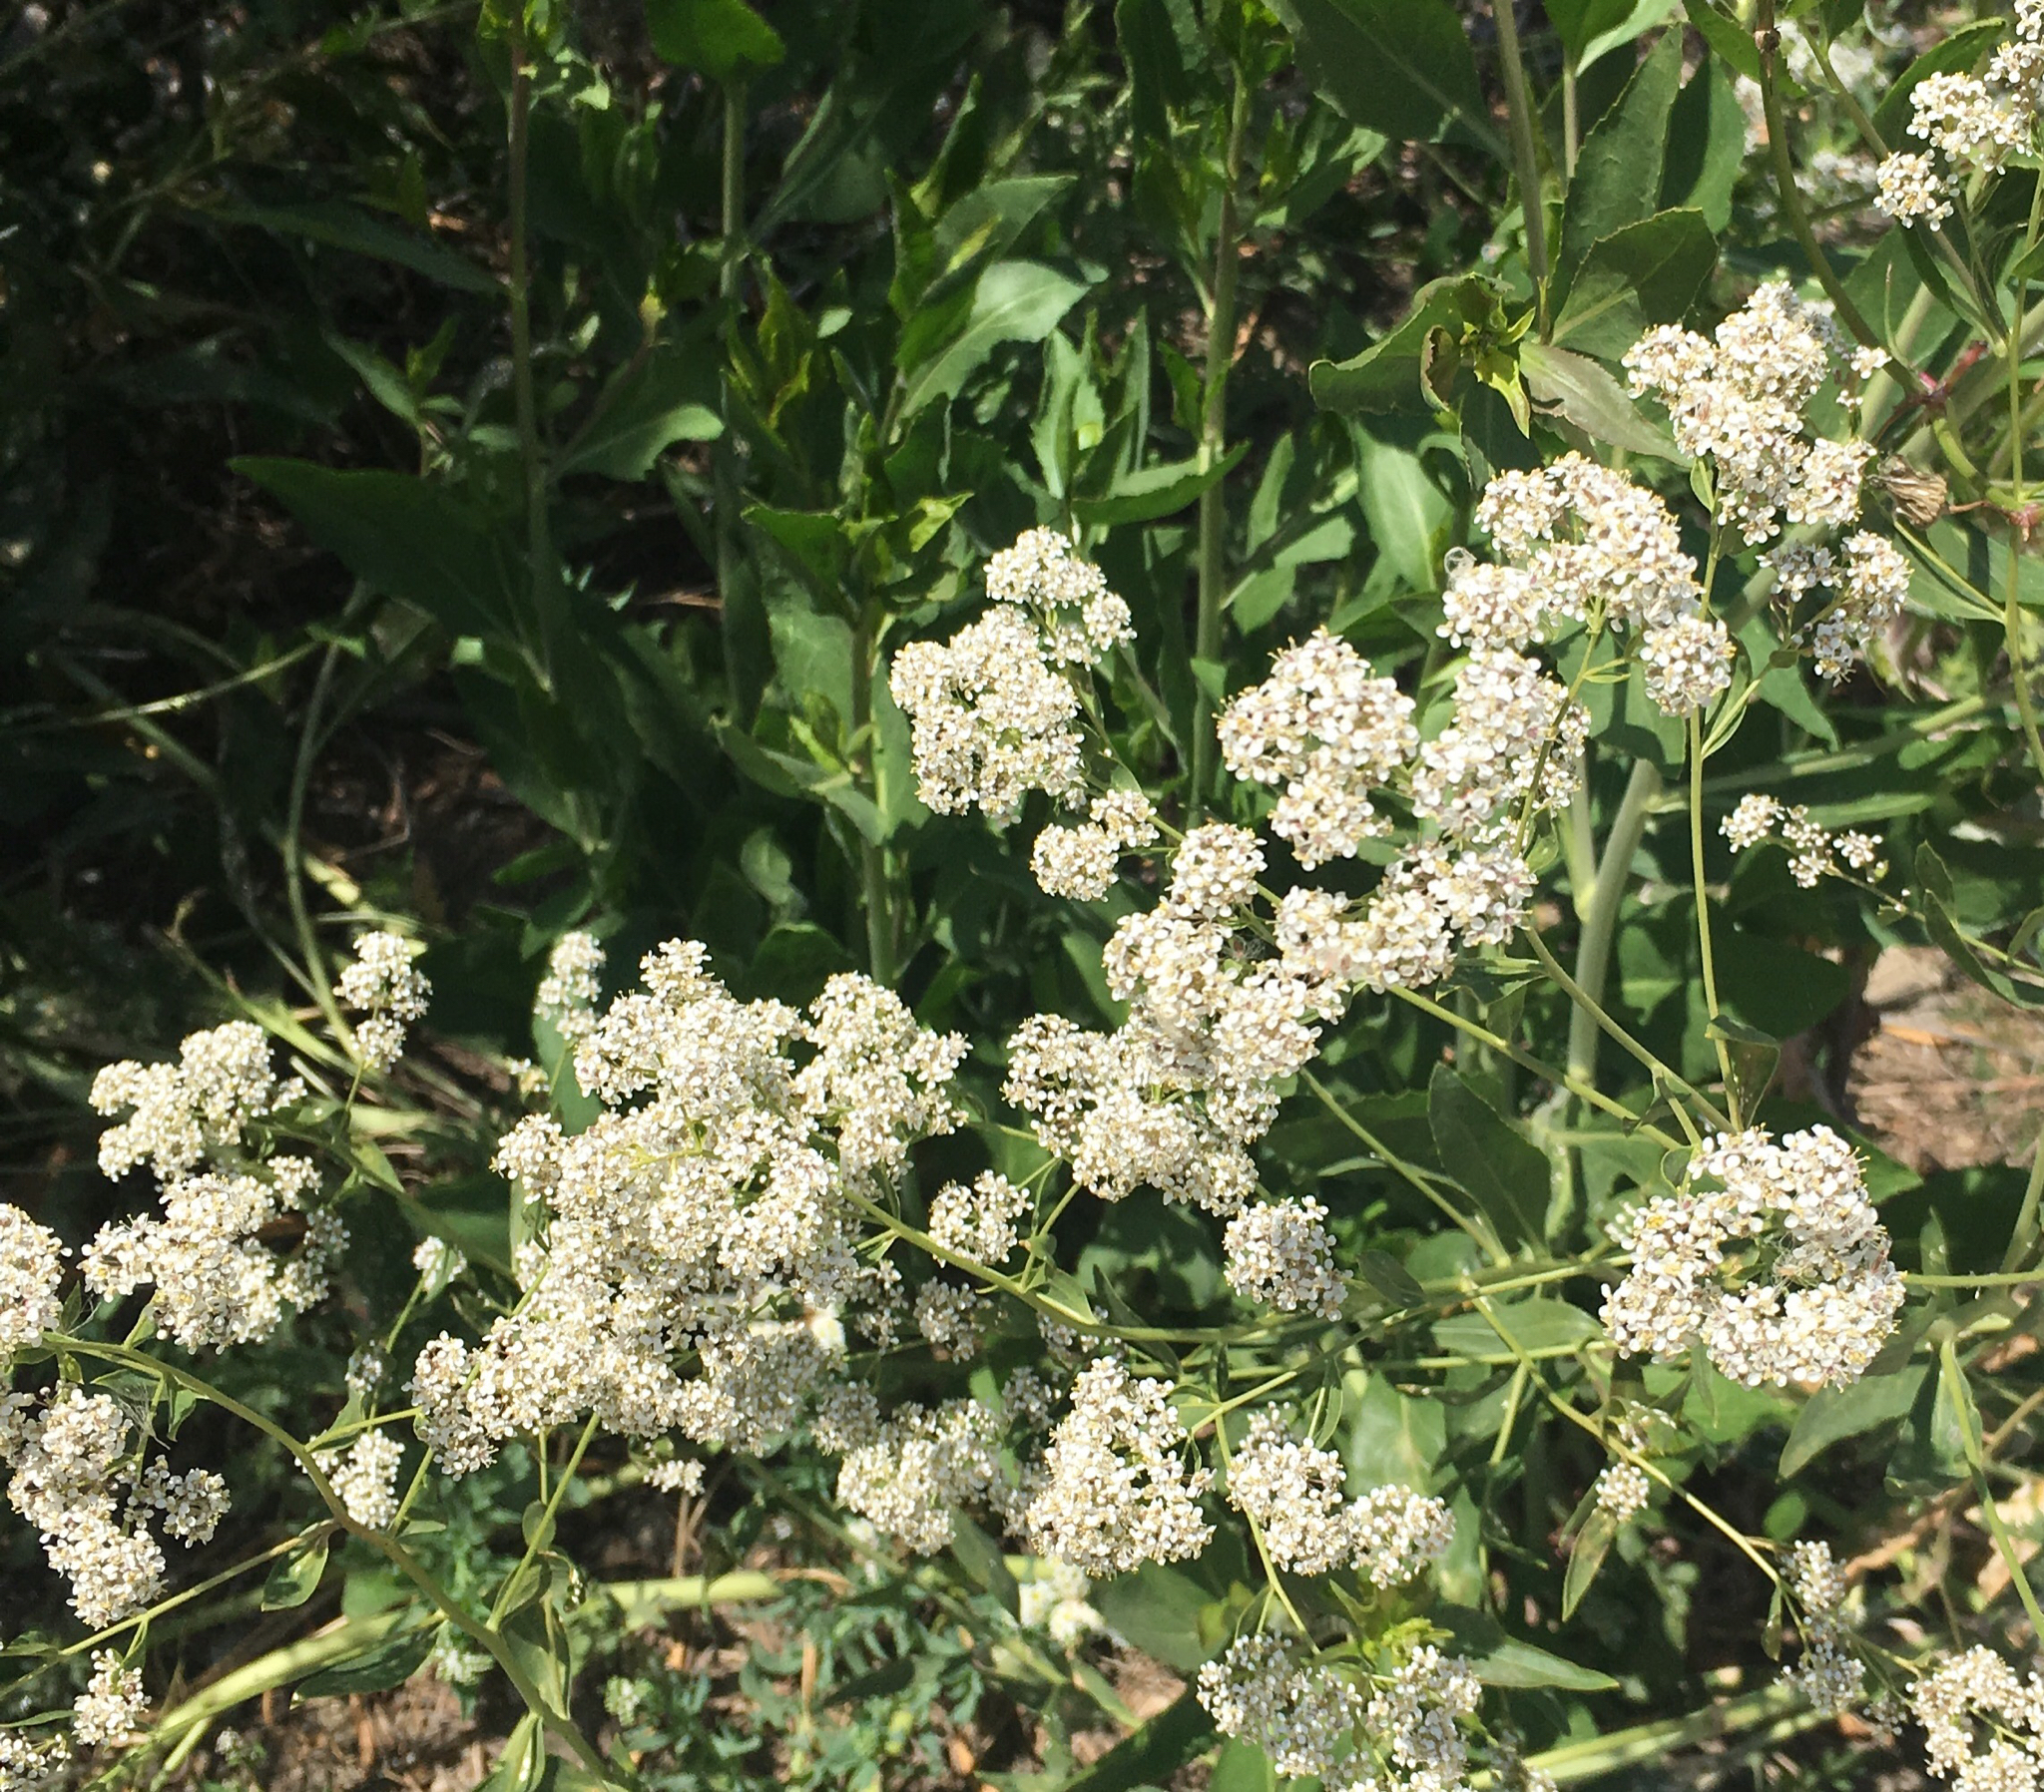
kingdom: Plantae
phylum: Tracheophyta
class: Magnoliopsida
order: Brassicales
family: Brassicaceae
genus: Lepidium
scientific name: Lepidium latifolium
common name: Dittander
